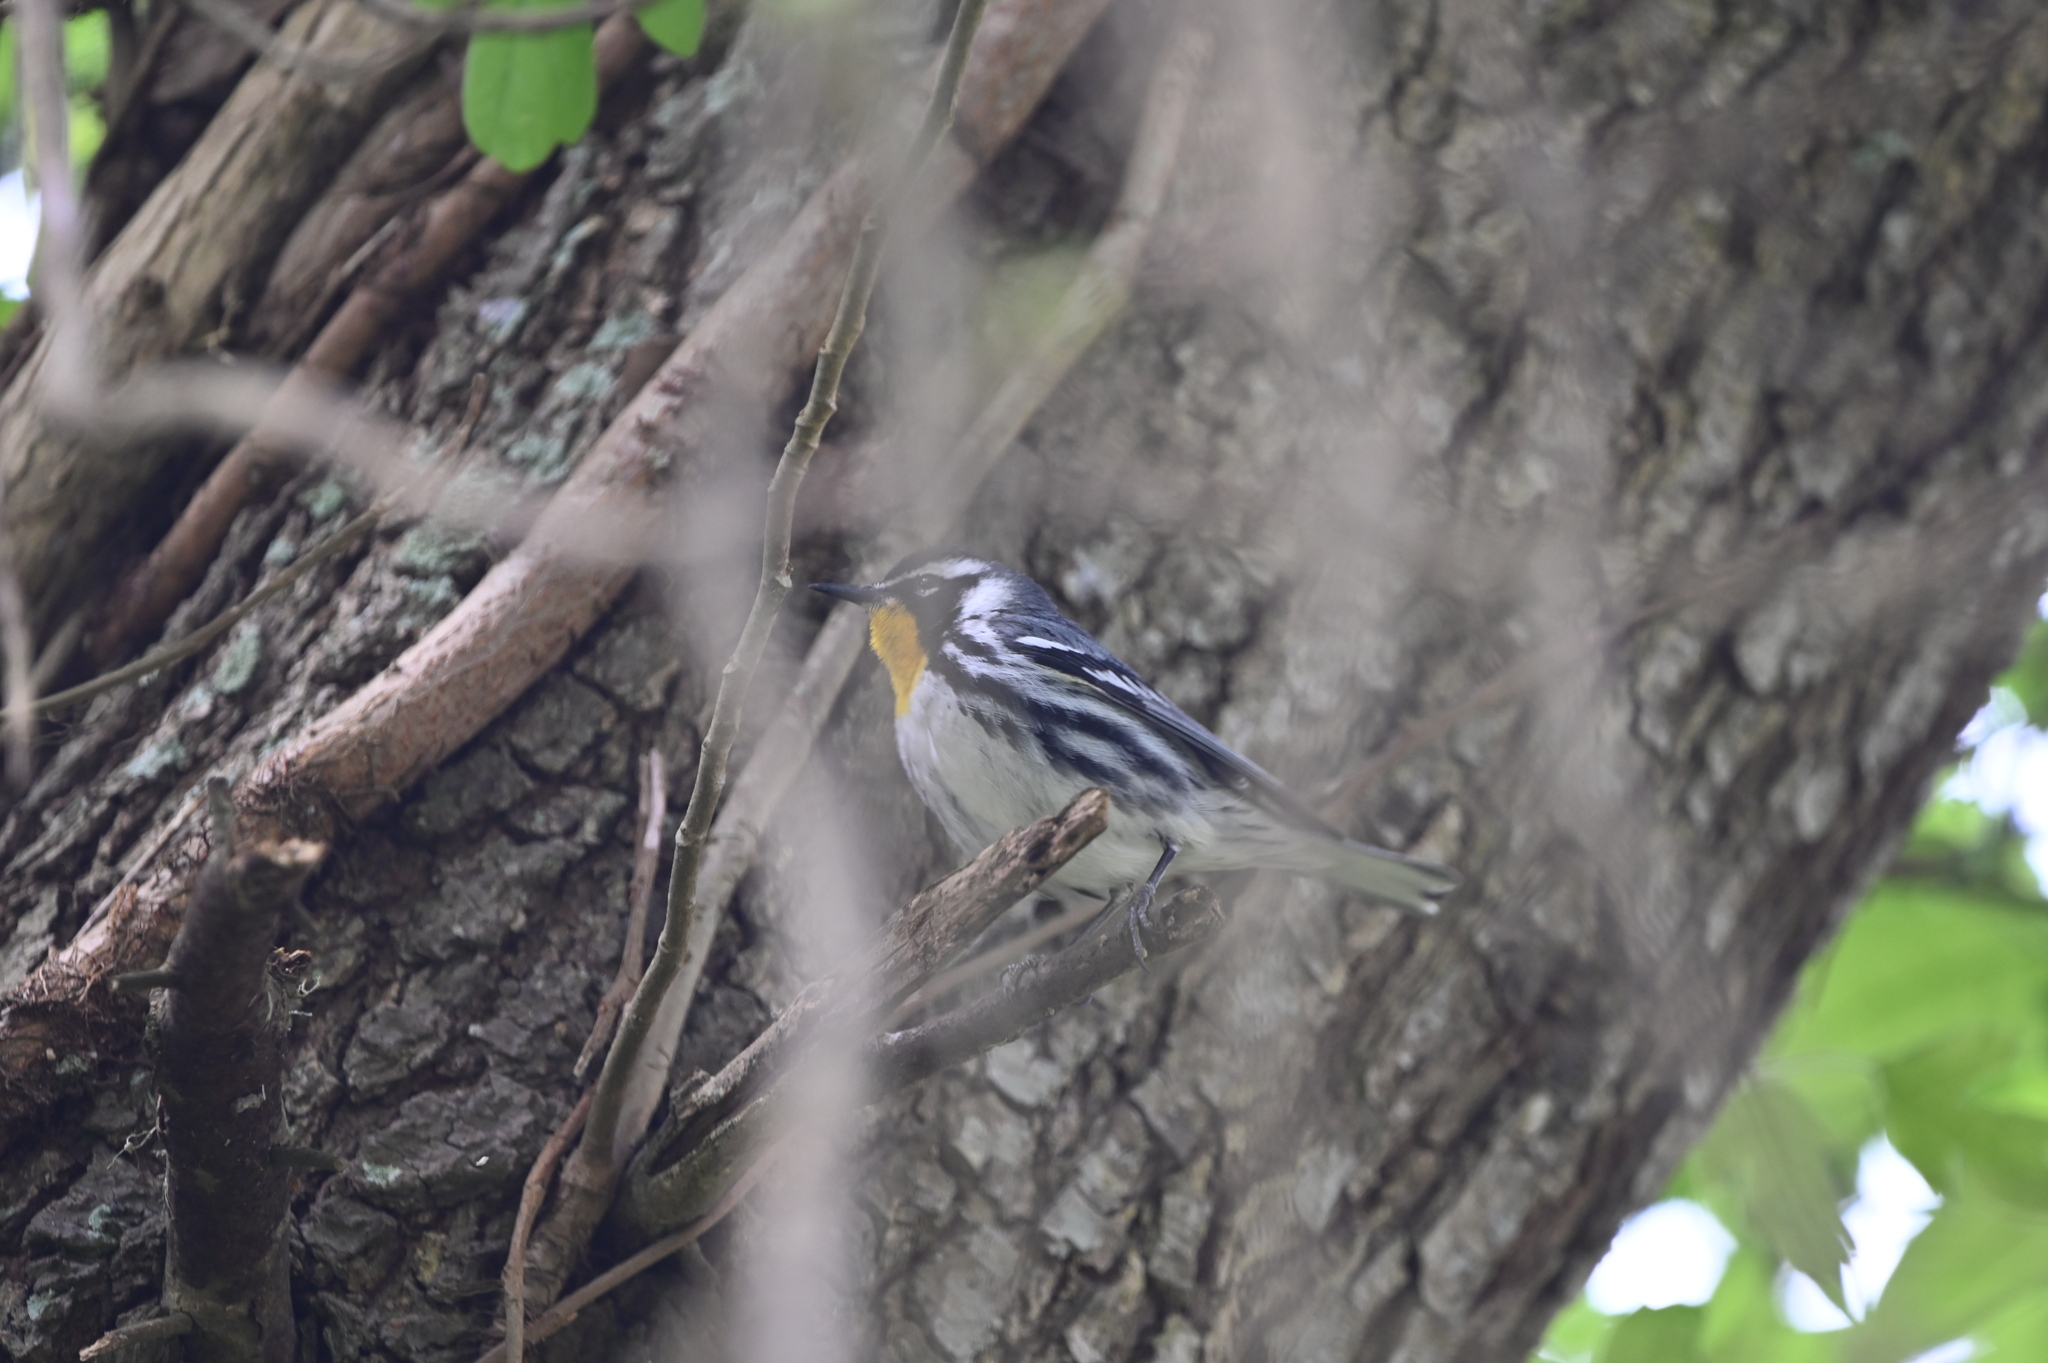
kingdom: Animalia
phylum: Chordata
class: Aves
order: Passeriformes
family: Parulidae
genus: Setophaga
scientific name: Setophaga dominica
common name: Yellow-throated warbler
